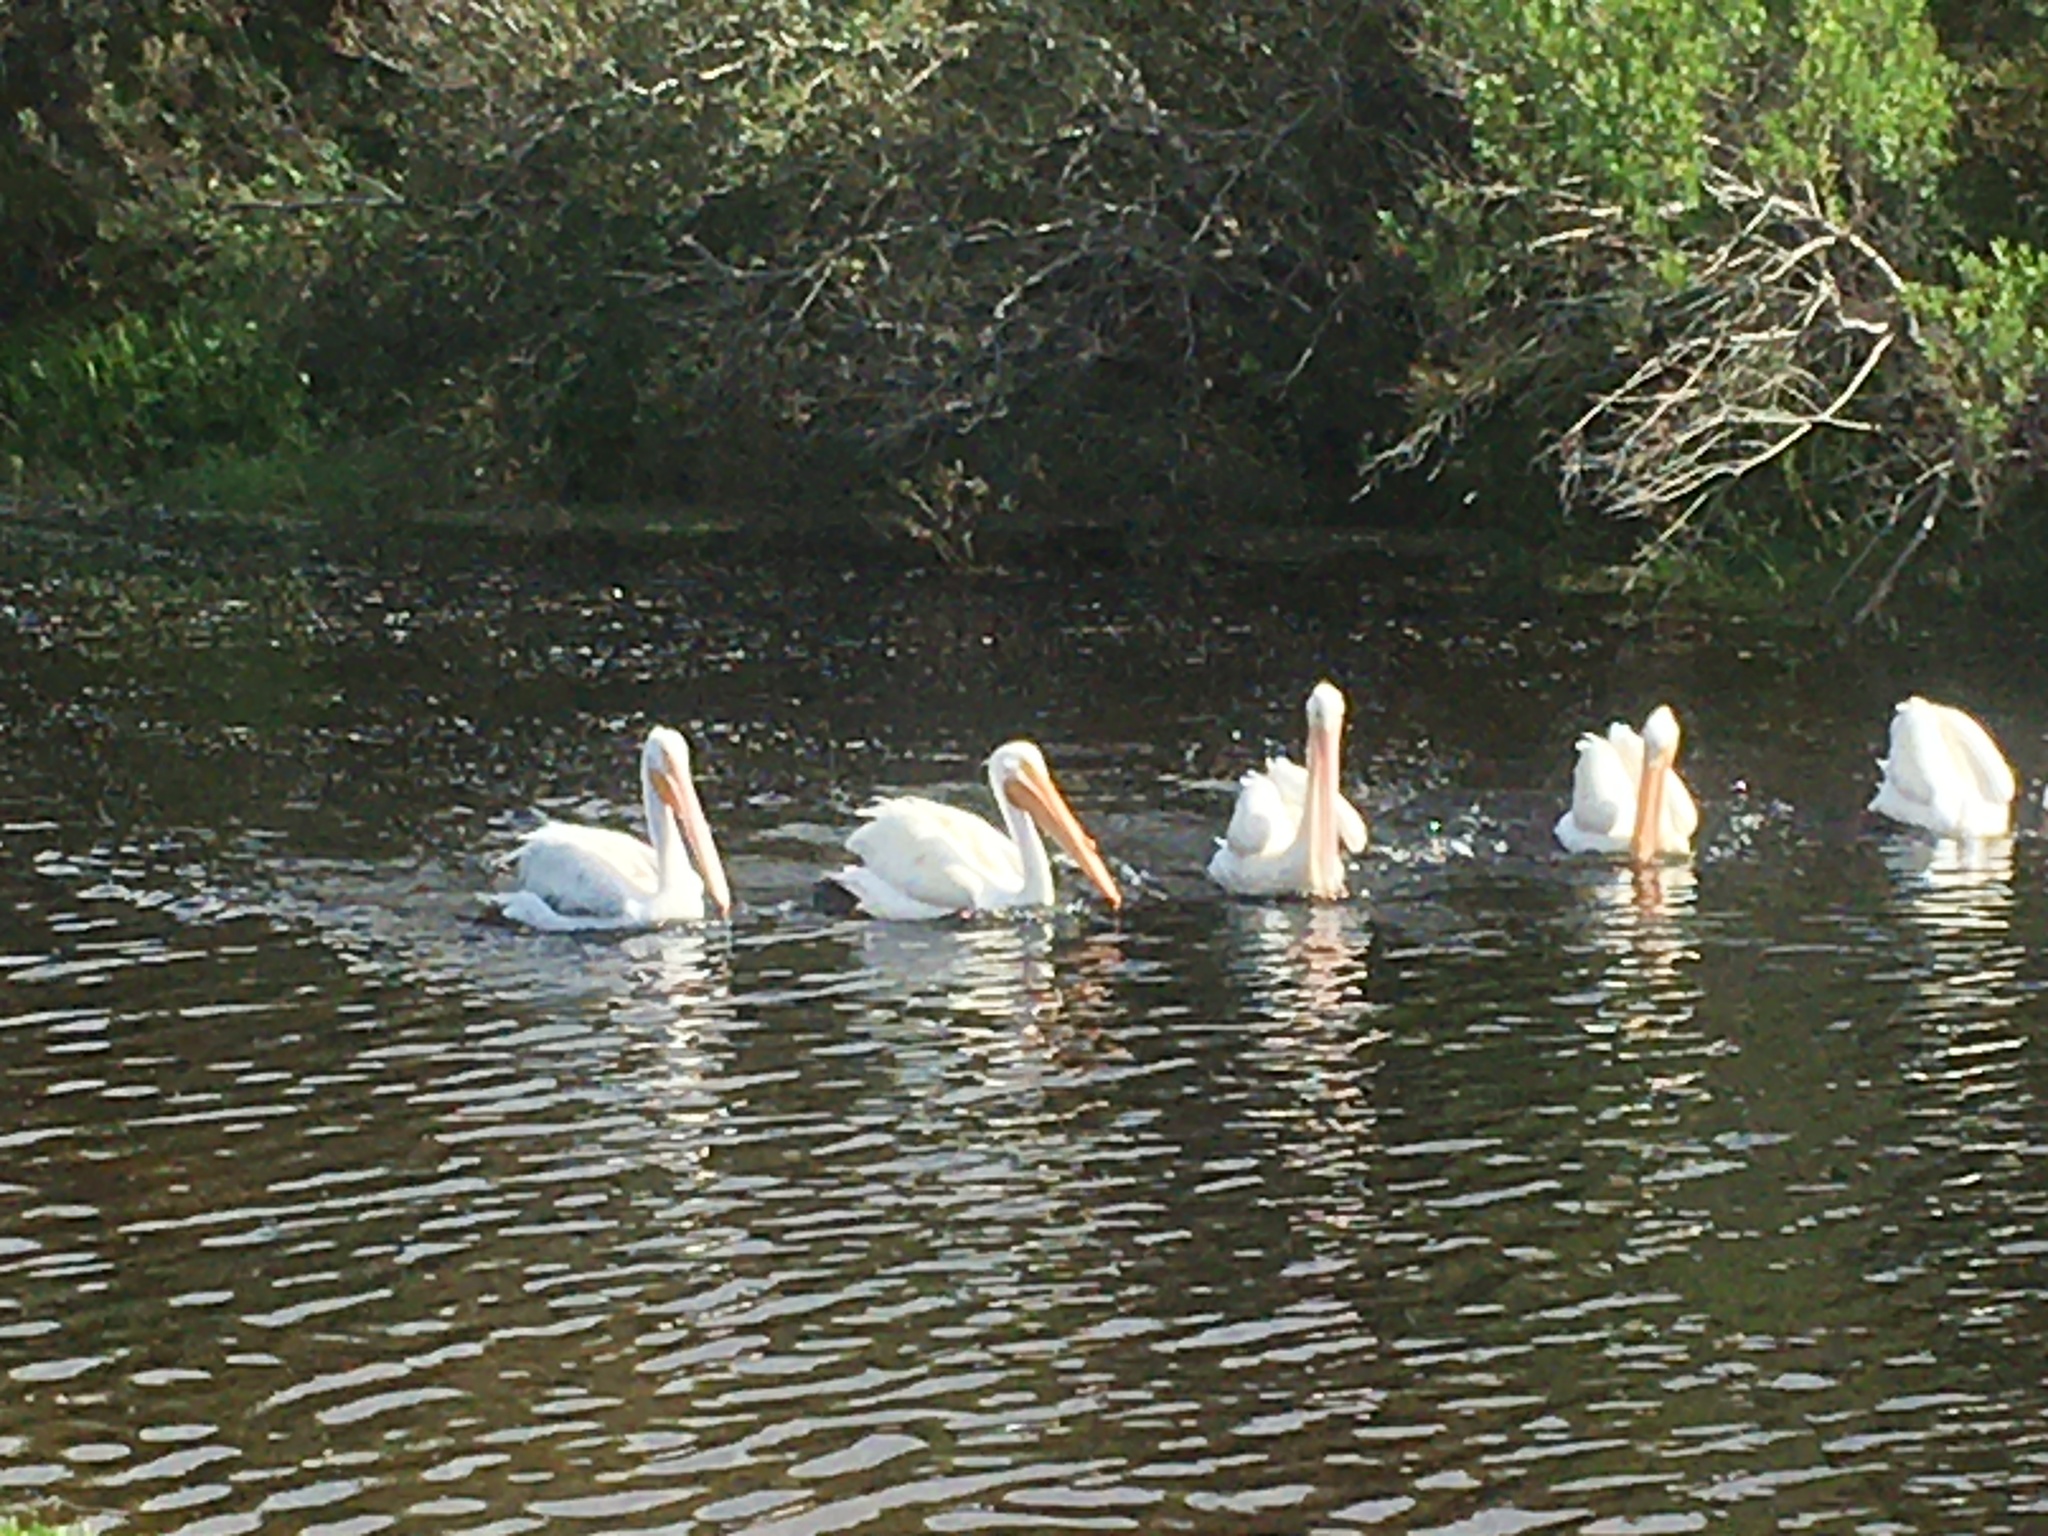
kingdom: Animalia
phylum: Chordata
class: Aves
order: Pelecaniformes
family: Pelecanidae
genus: Pelecanus
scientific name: Pelecanus erythrorhynchos
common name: American white pelican
